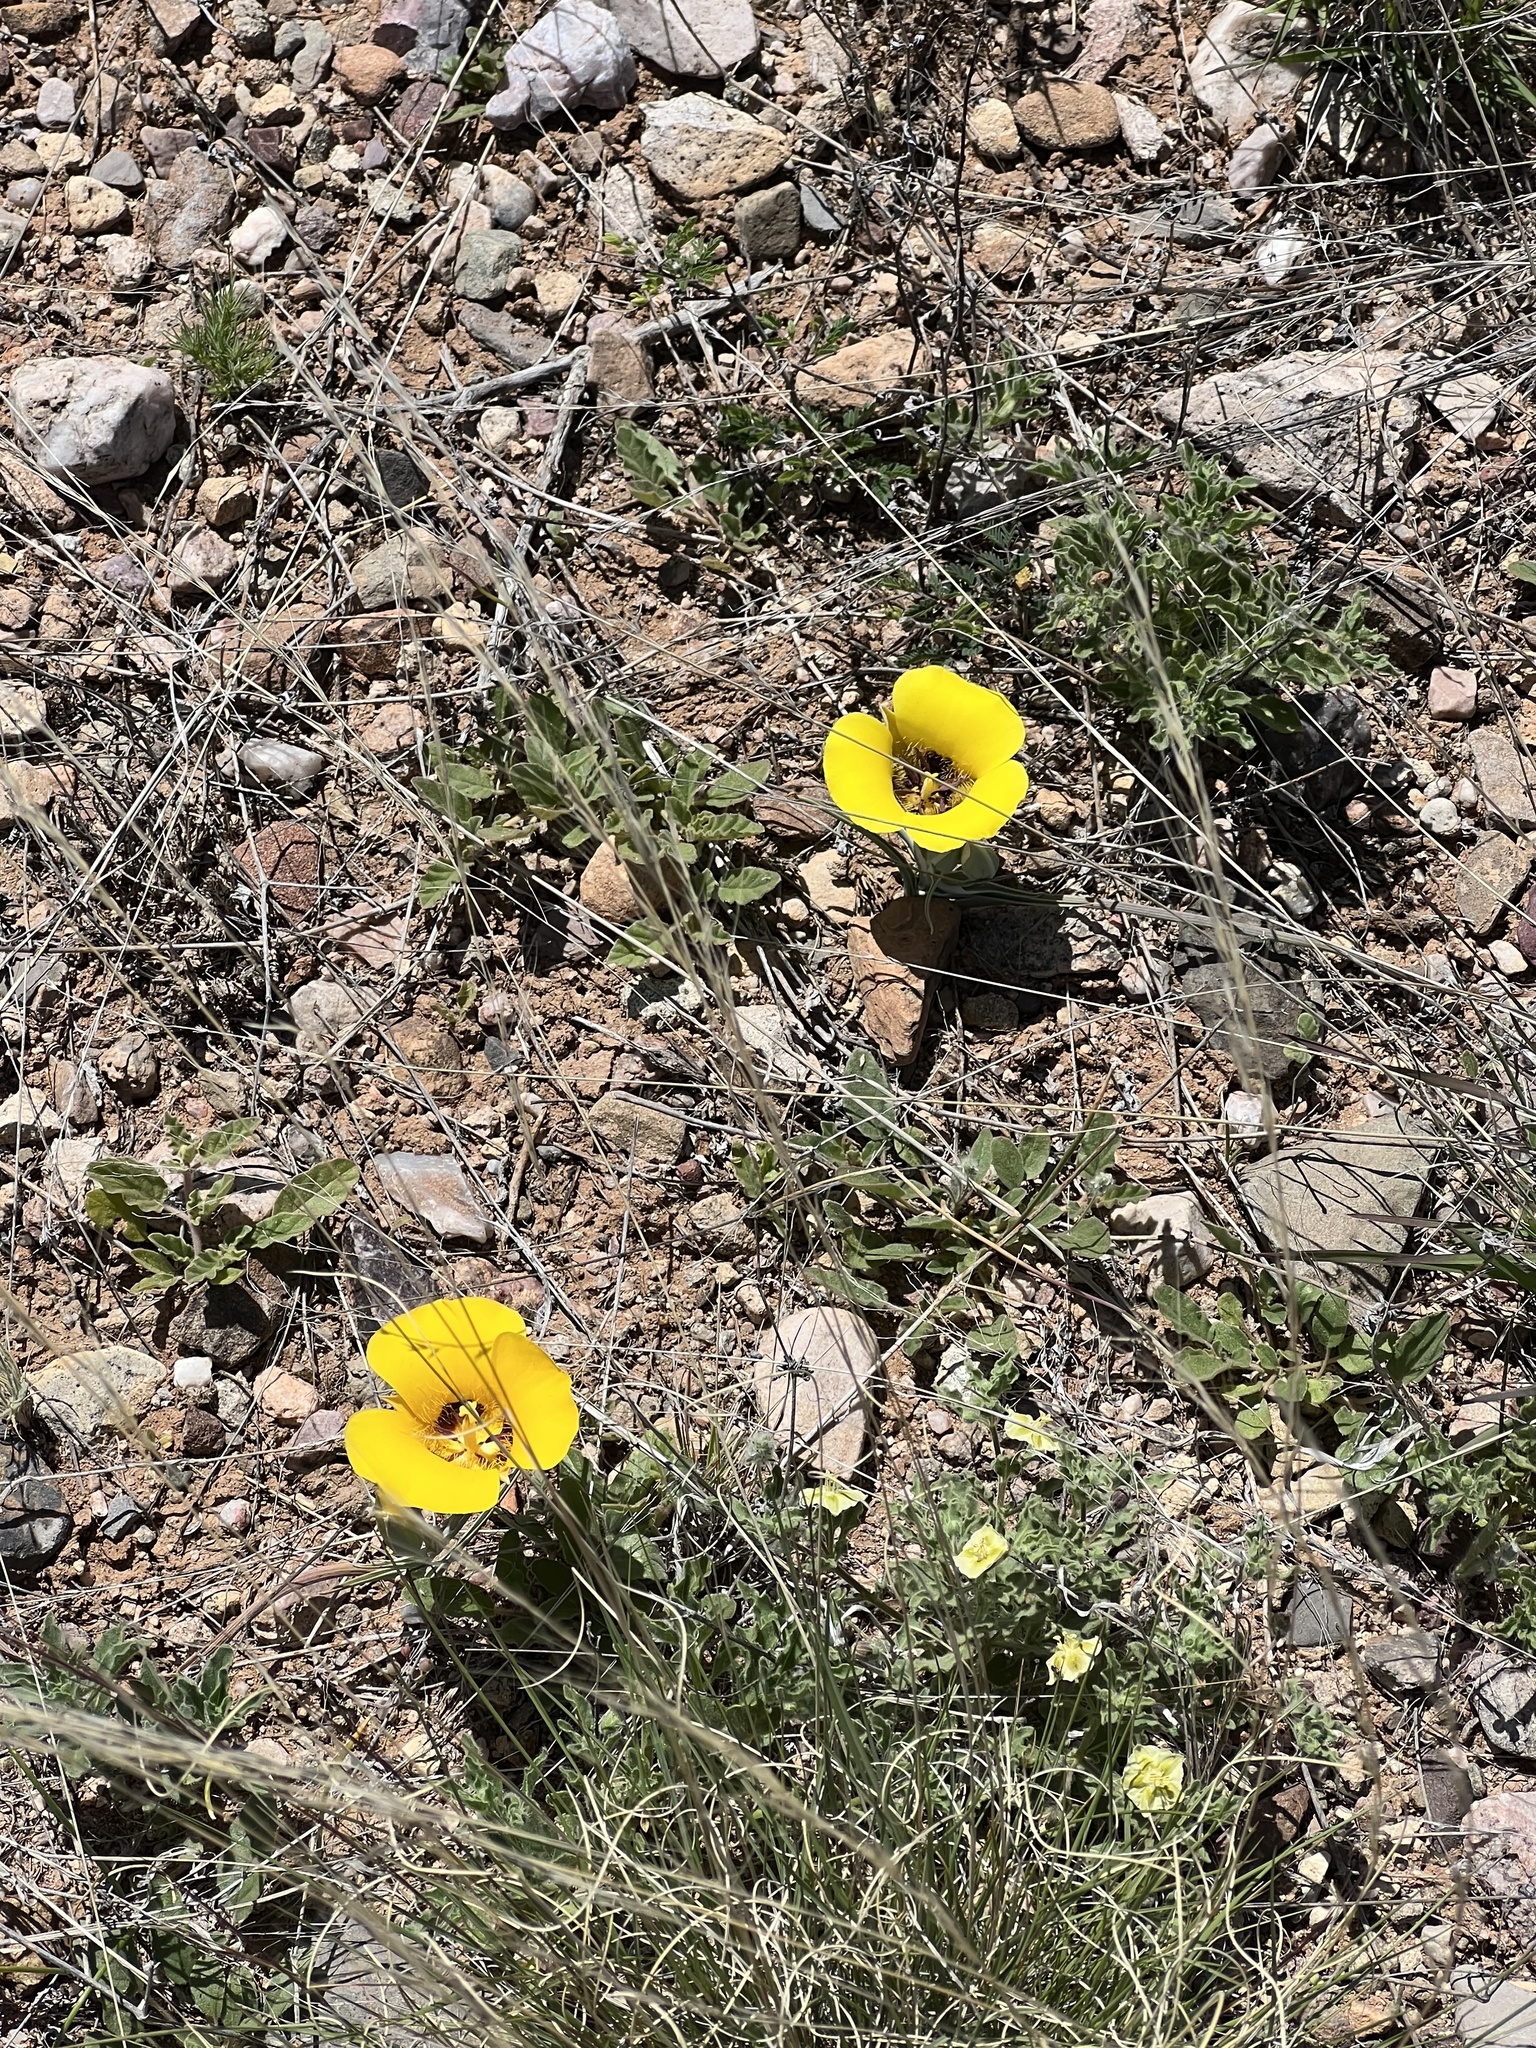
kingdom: Plantae
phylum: Tracheophyta
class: Liliopsida
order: Liliales
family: Liliaceae
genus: Calochortus
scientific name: Calochortus kennedyi
